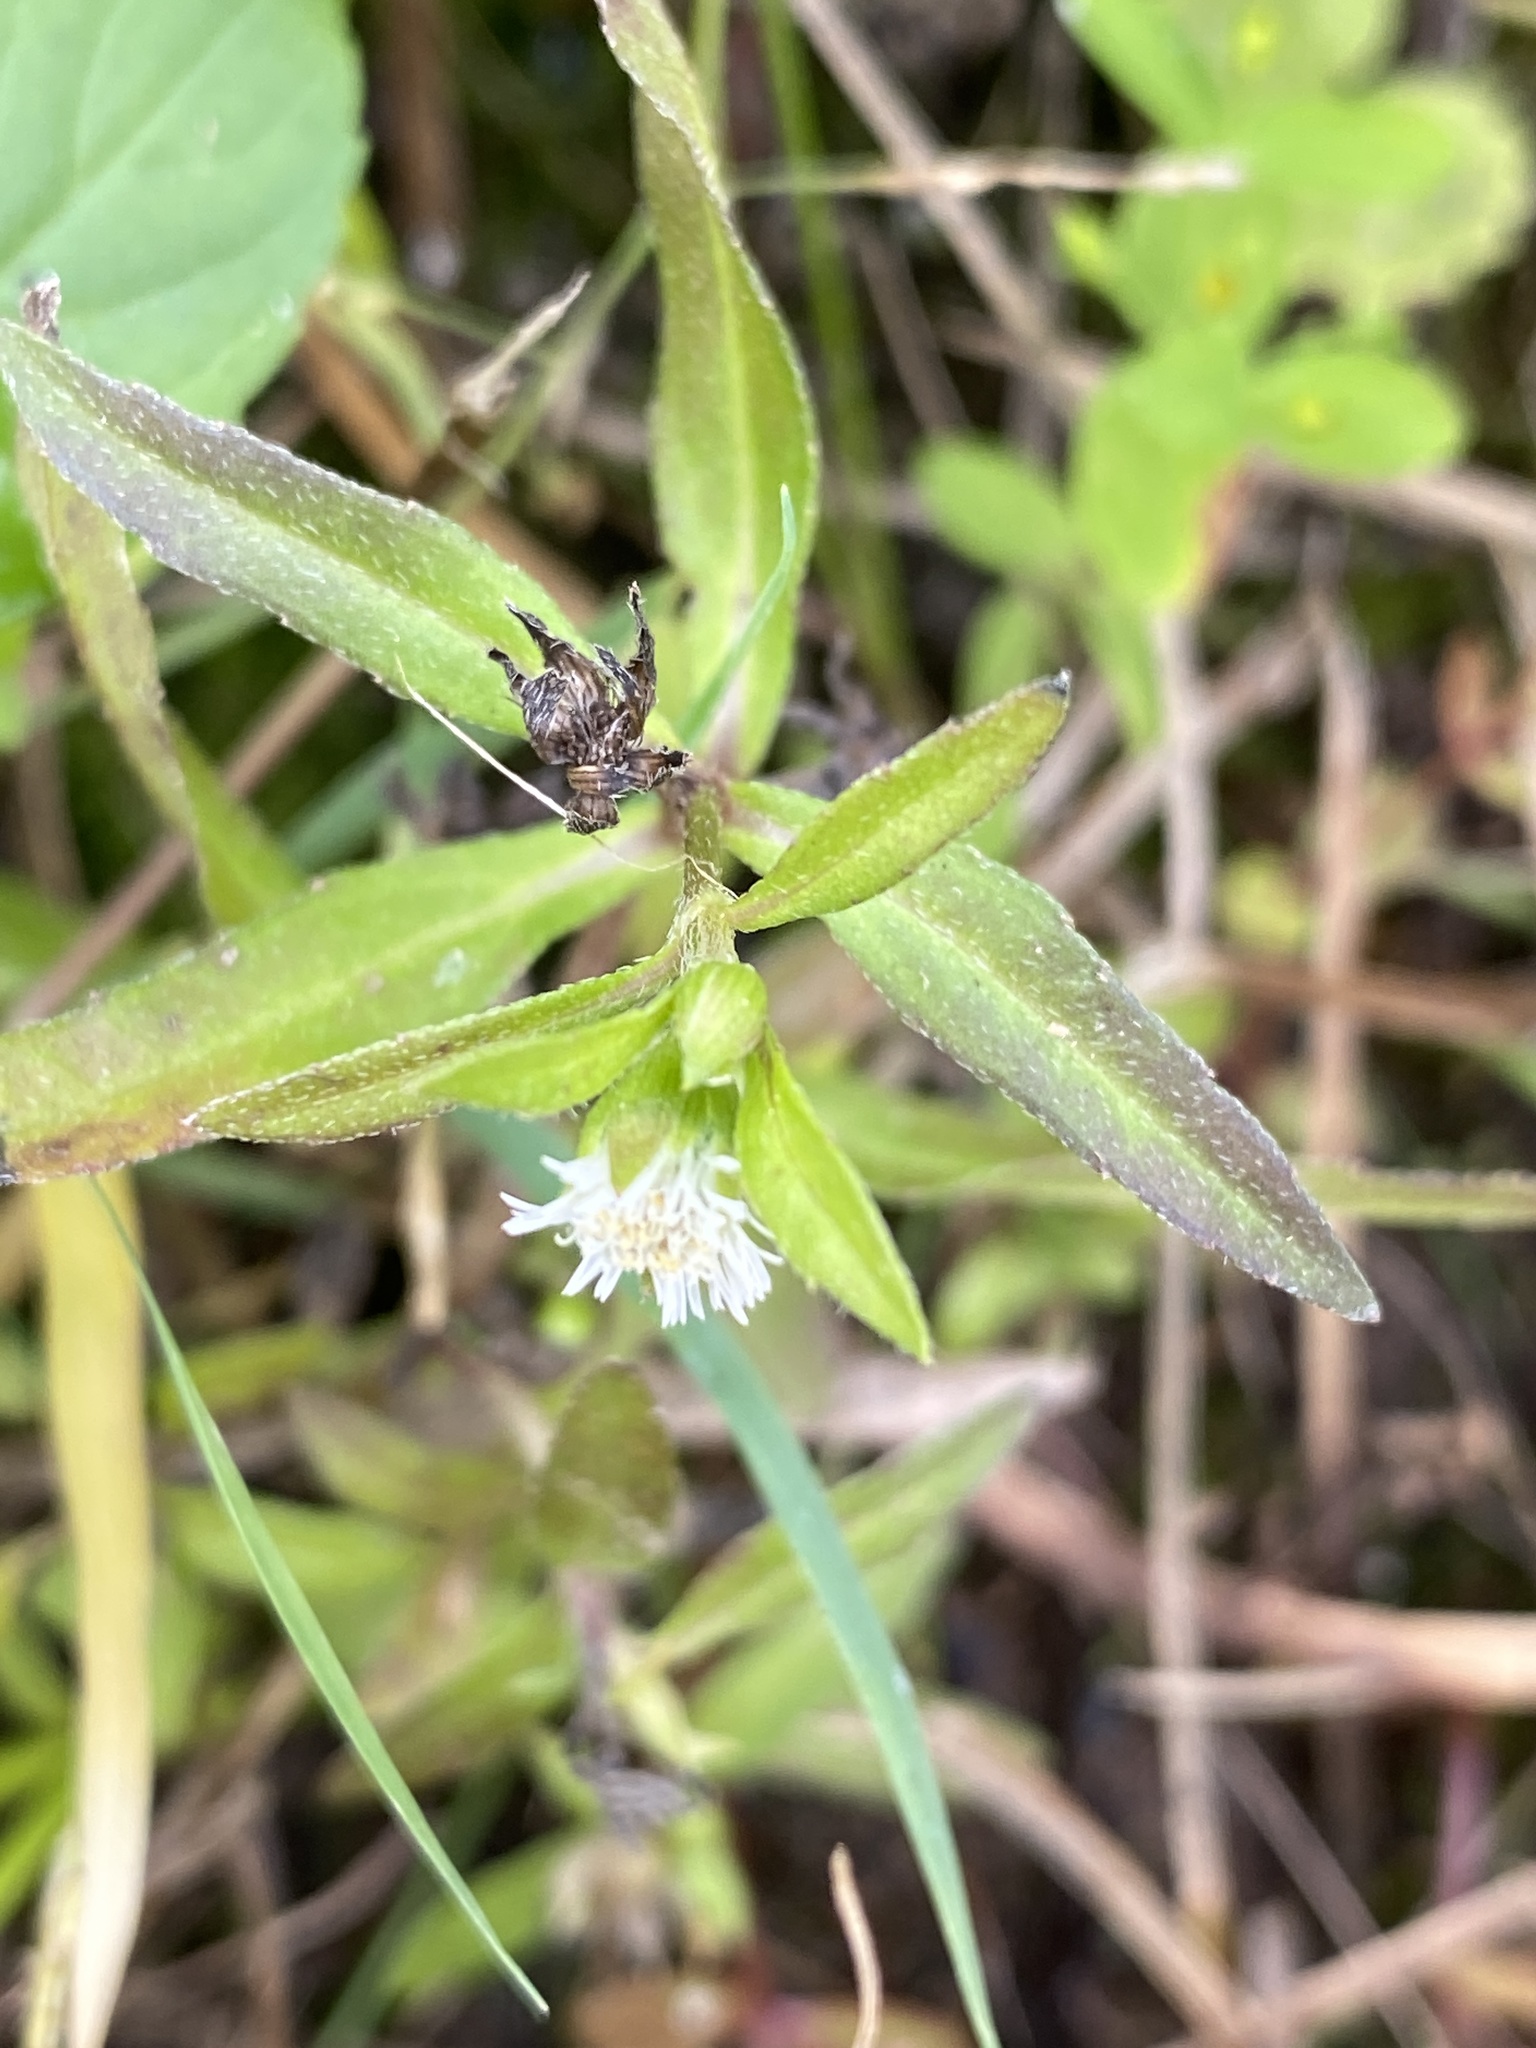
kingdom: Plantae
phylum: Tracheophyta
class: Magnoliopsida
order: Asterales
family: Asteraceae
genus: Eclipta
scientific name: Eclipta prostrata
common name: False daisy
